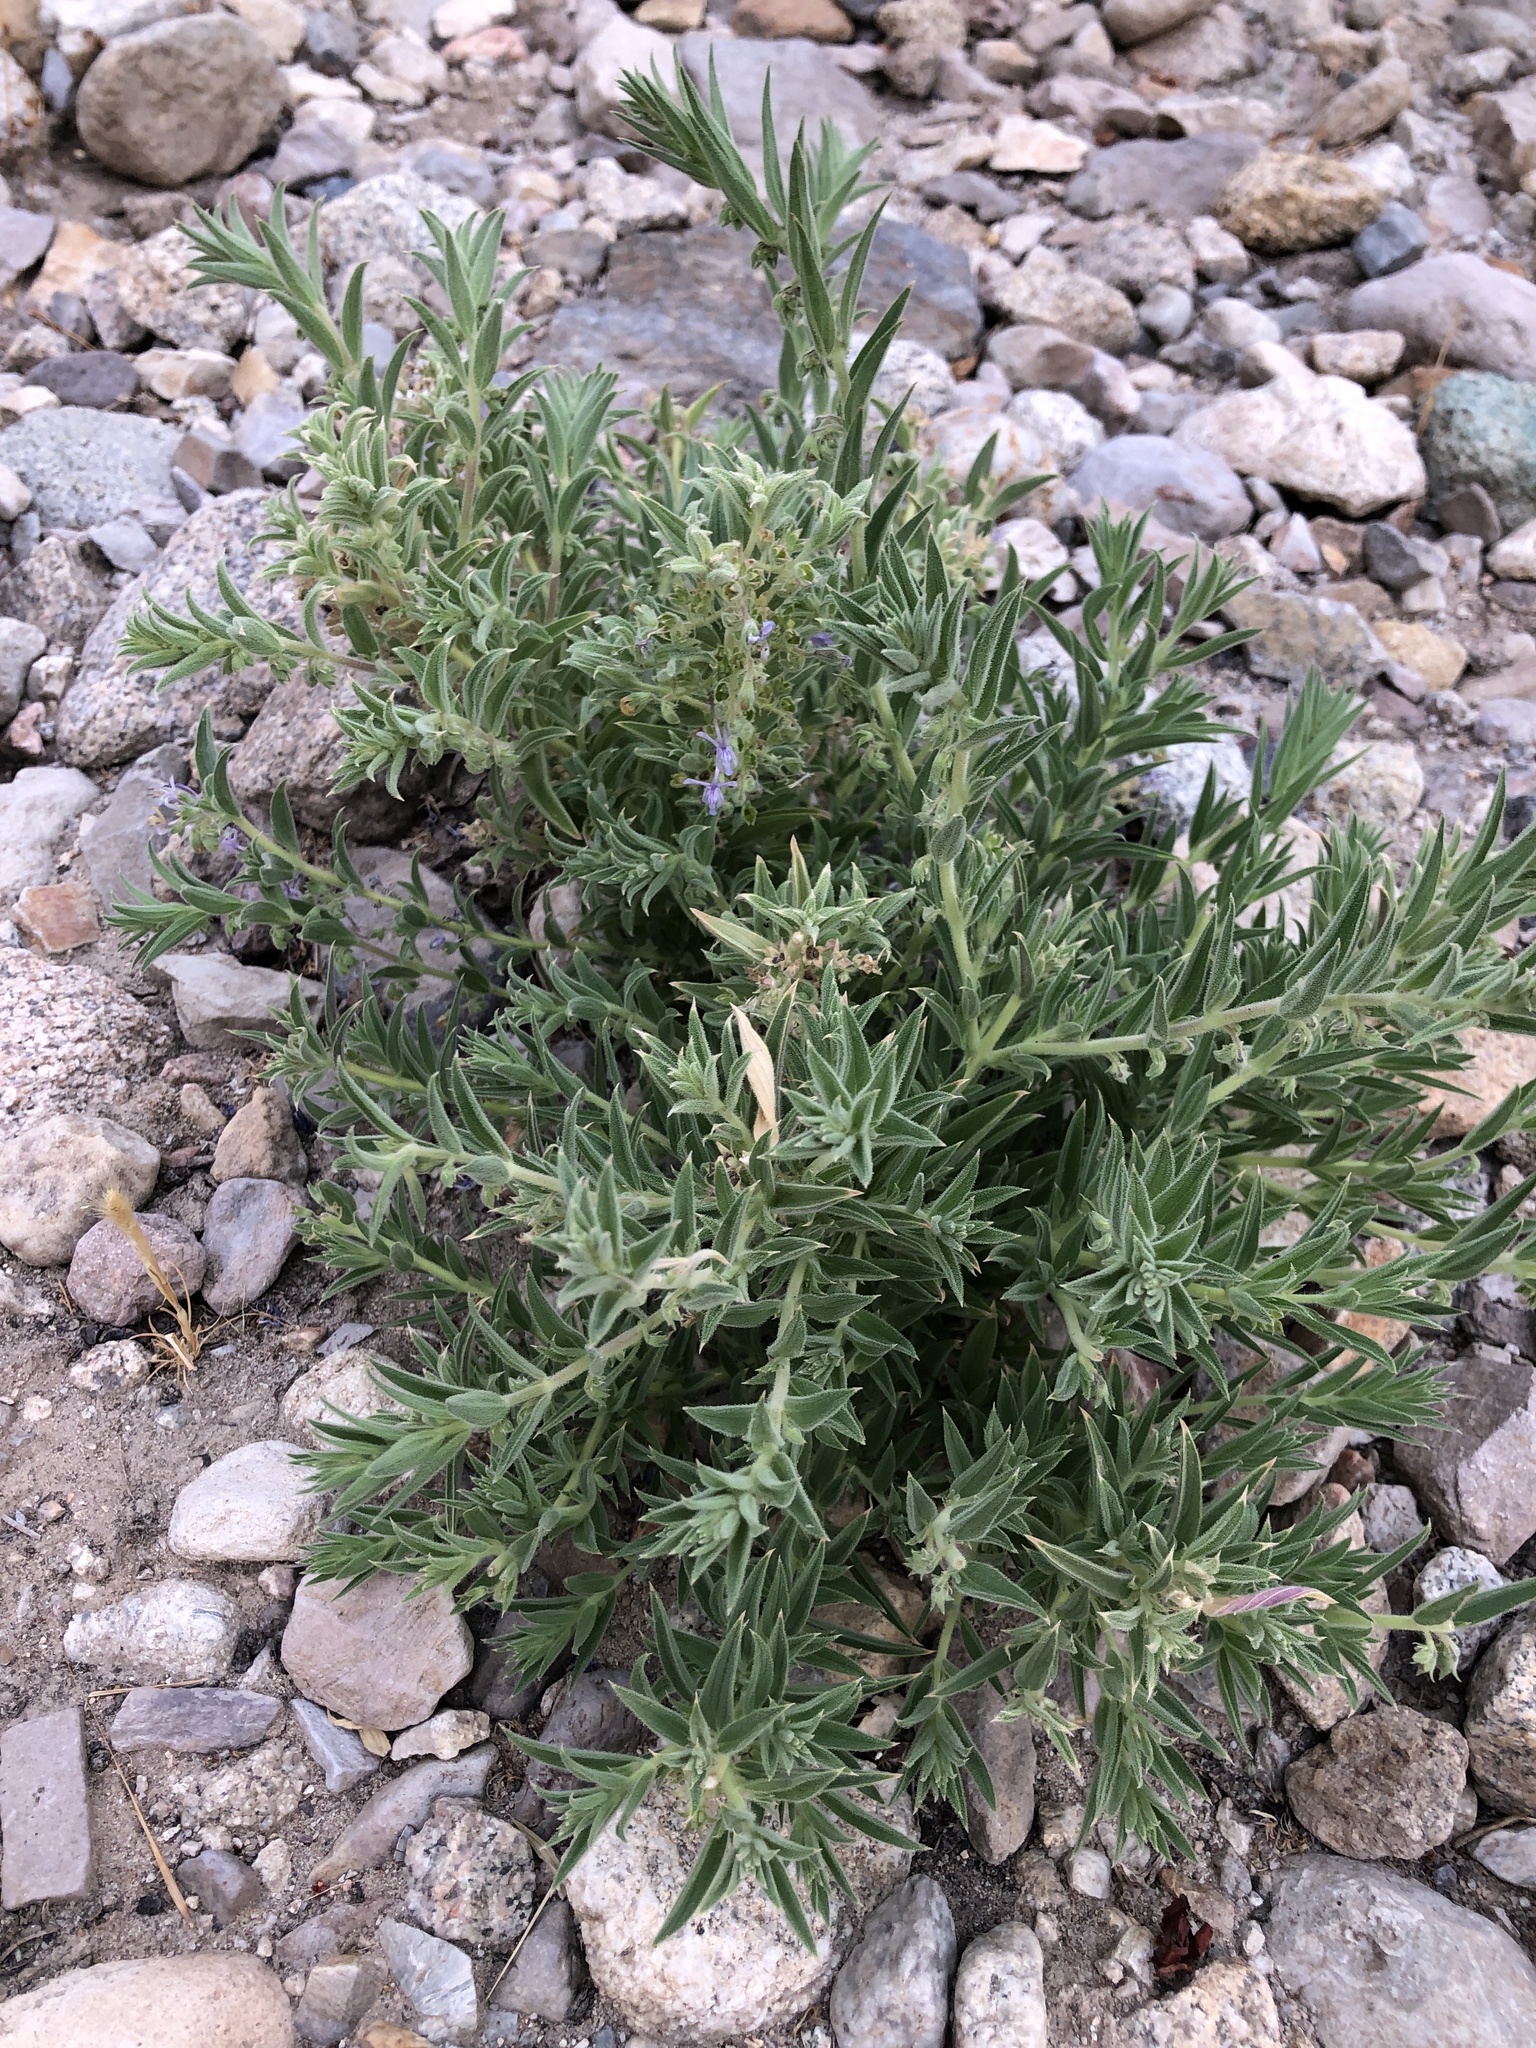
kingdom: Plantae
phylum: Tracheophyta
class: Magnoliopsida
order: Lamiales
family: Lamiaceae
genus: Trichostema
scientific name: Trichostema lanceolatum
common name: Vinegar-weed
